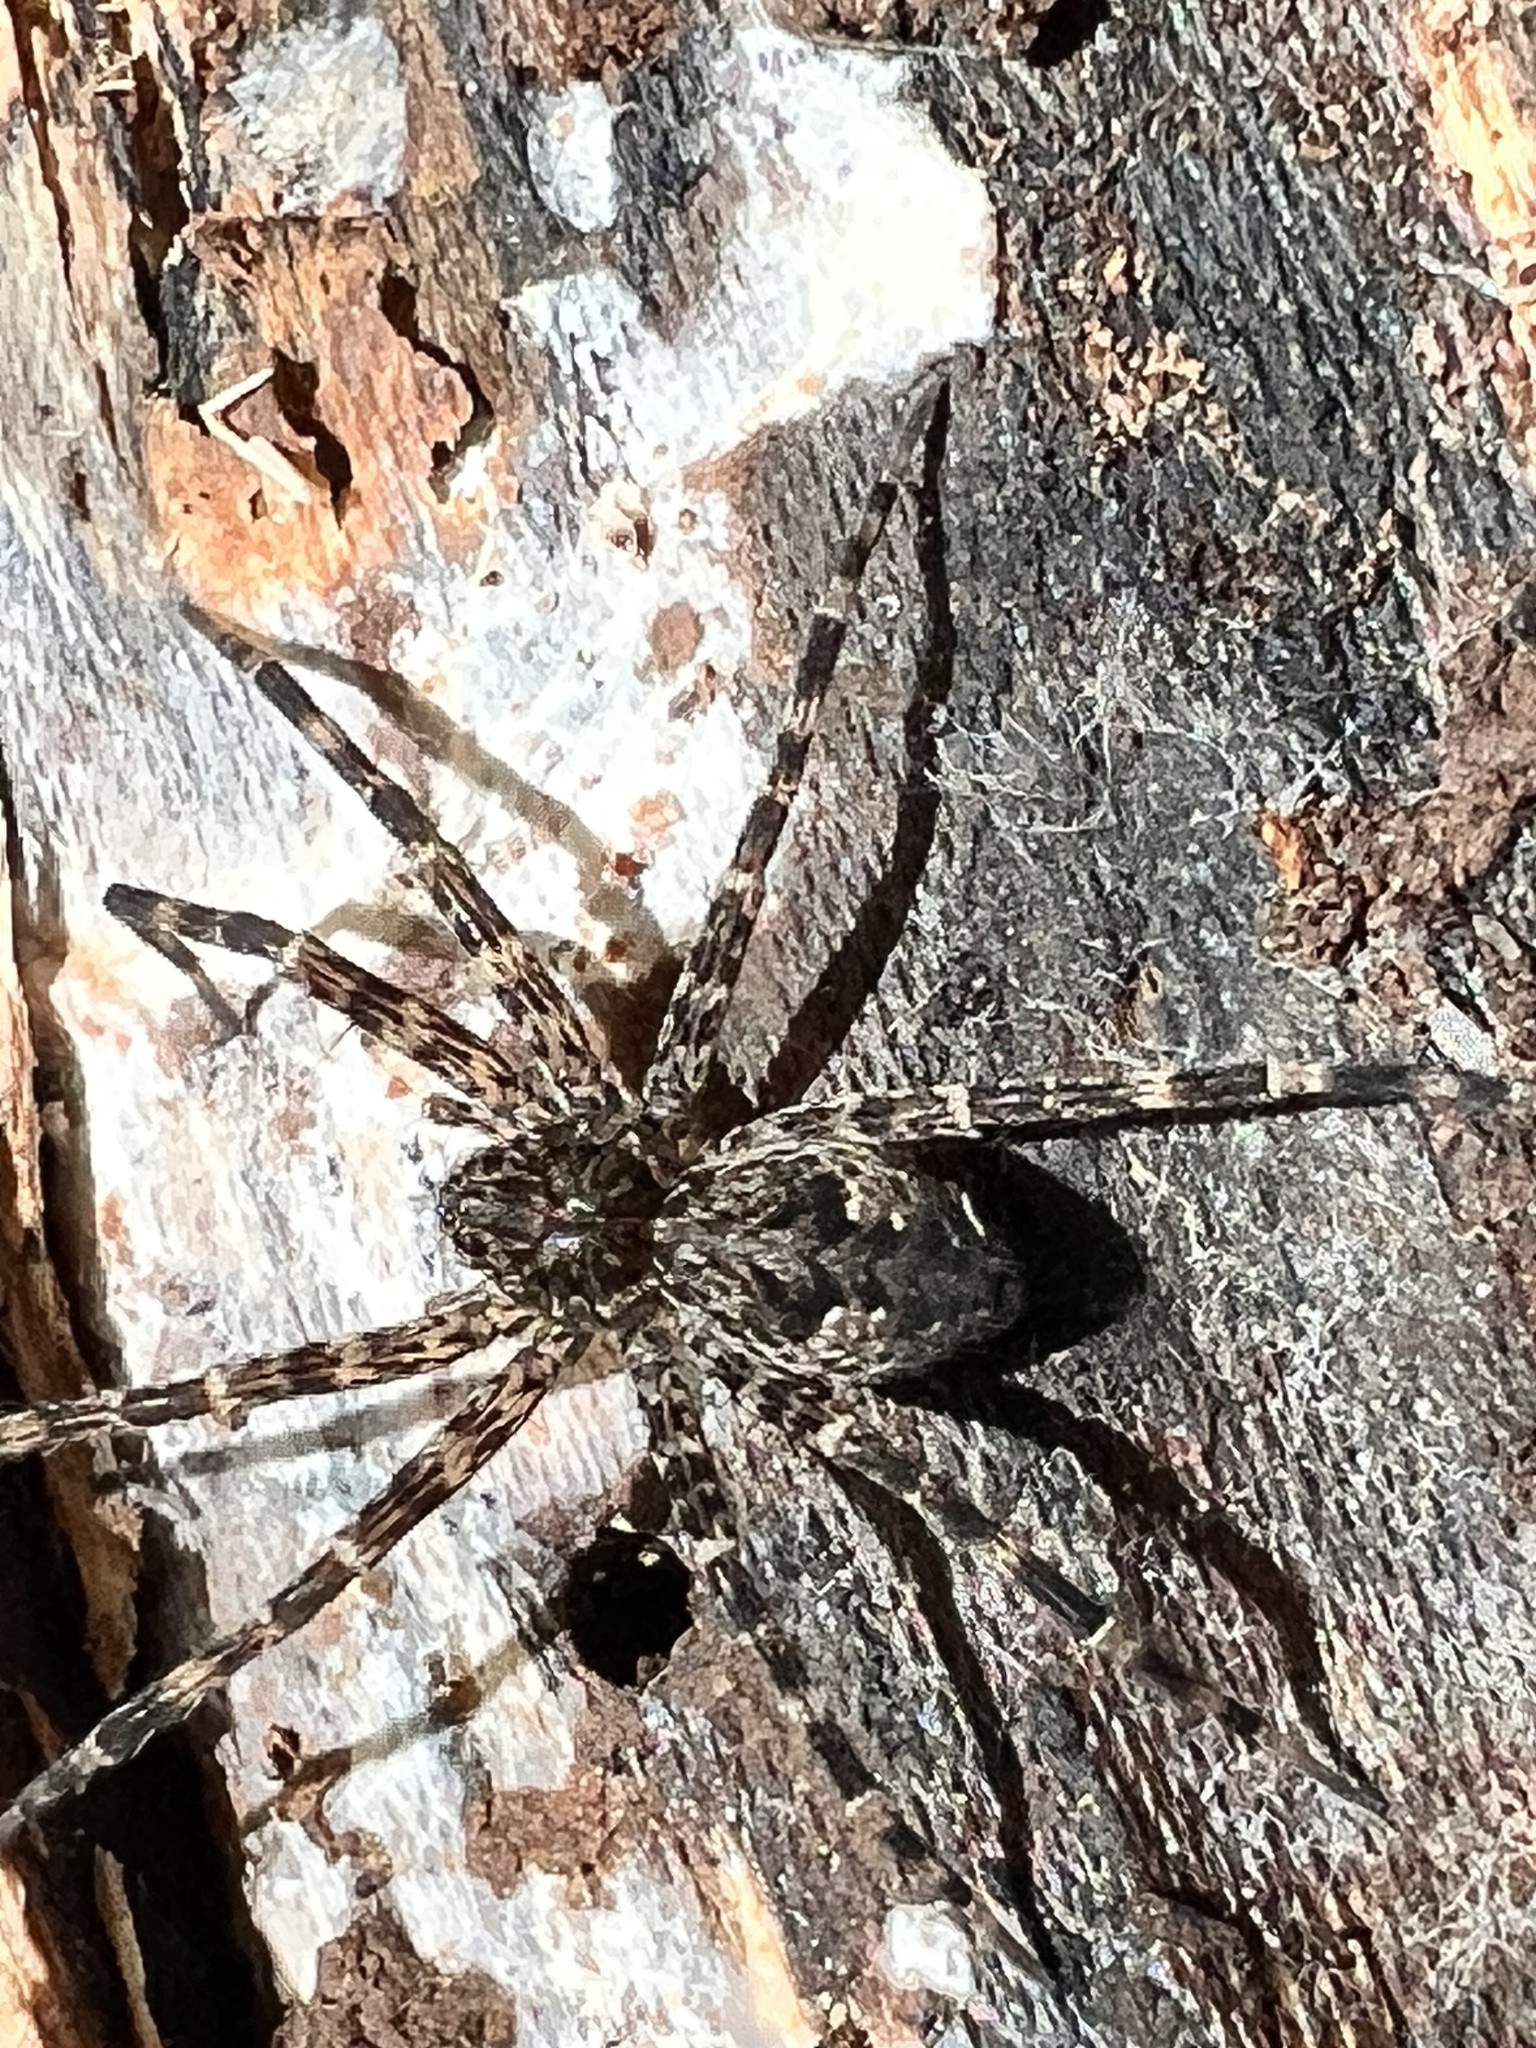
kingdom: Animalia
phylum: Arthropoda
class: Arachnida
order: Araneae
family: Pisauridae
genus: Dolomedes
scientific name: Dolomedes tenebrosus
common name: Dark fishing spider
